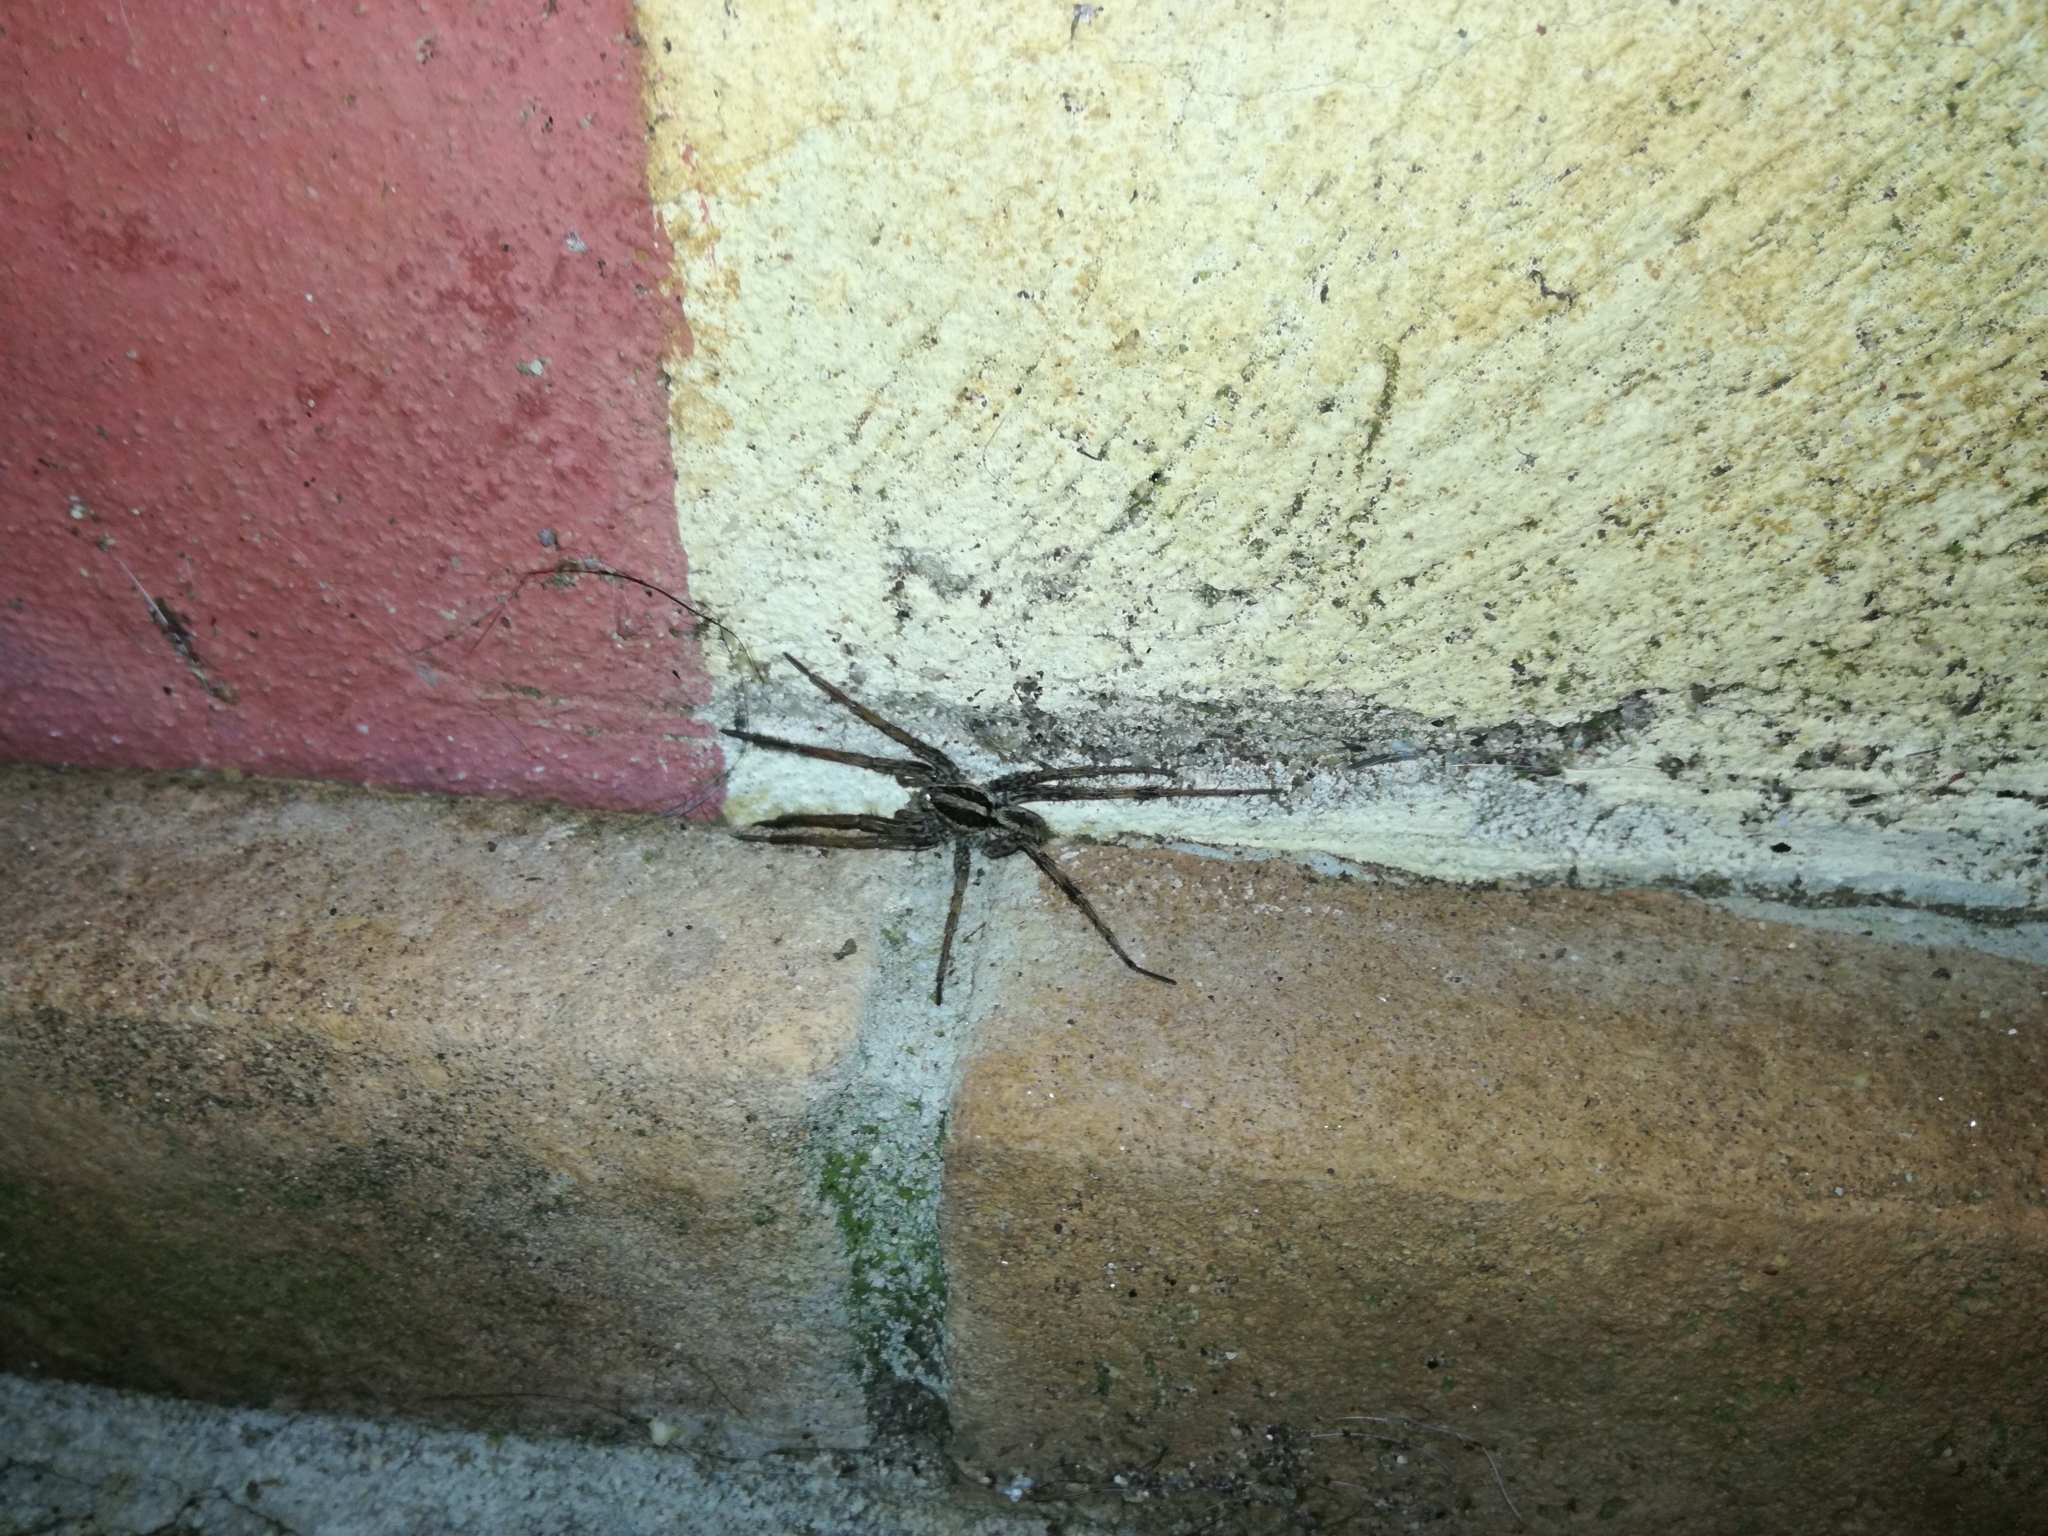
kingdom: Animalia
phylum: Arthropoda
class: Arachnida
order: Araneae
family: Lycosidae
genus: Hogna
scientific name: Hogna radiata
